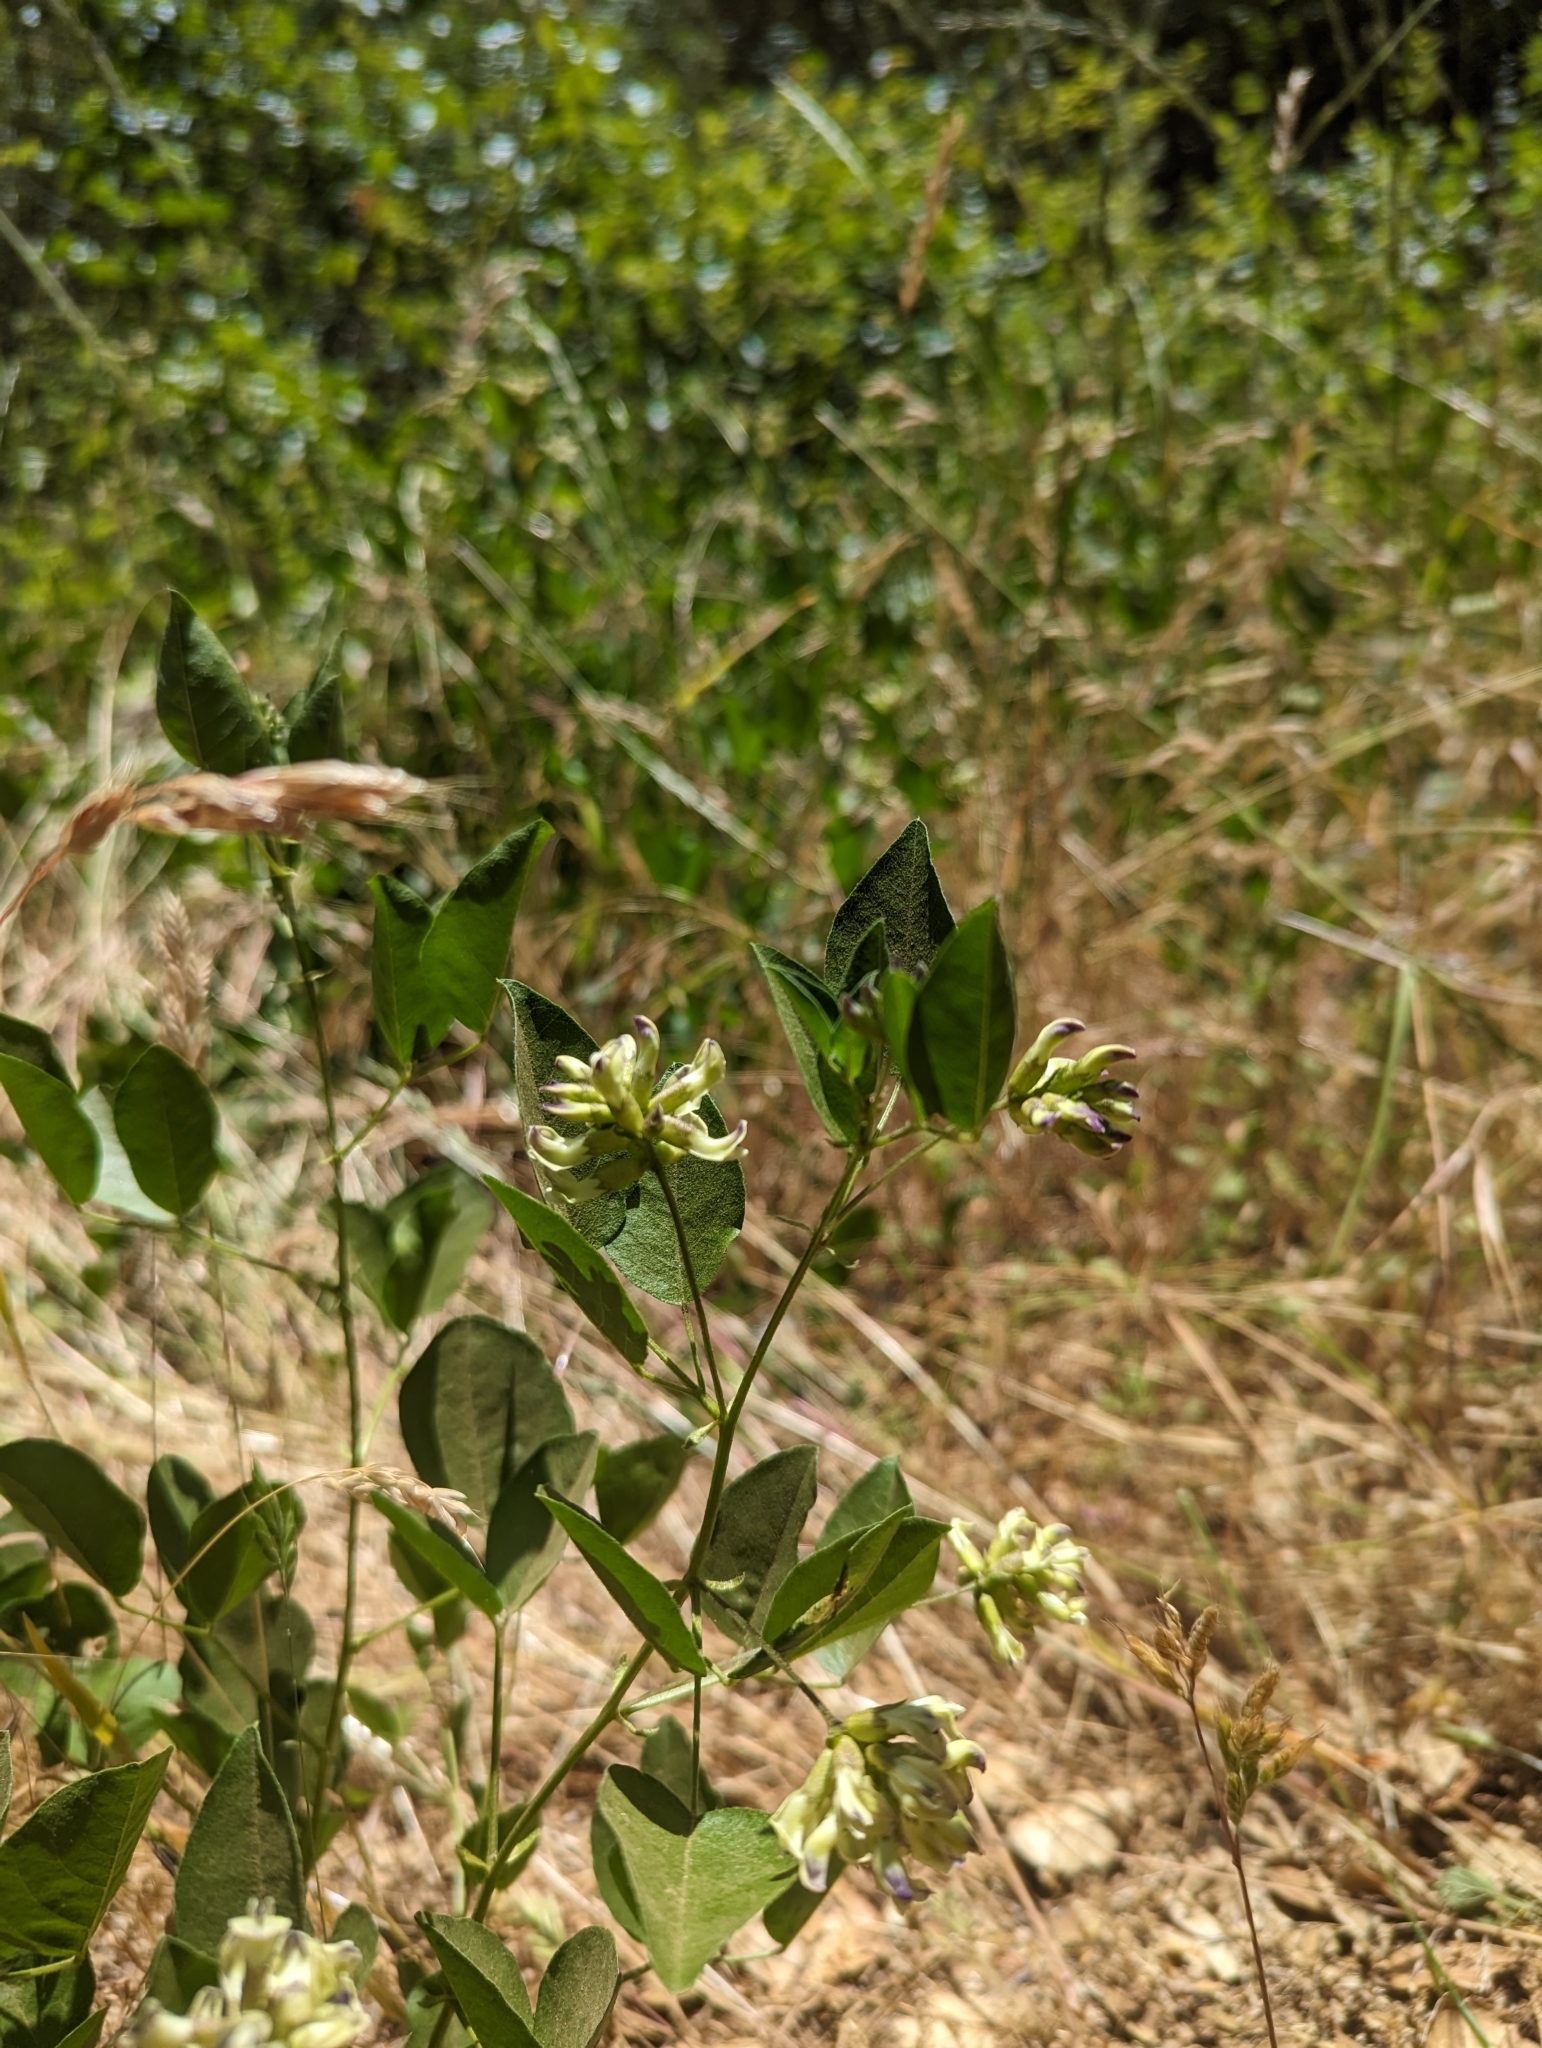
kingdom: Plantae
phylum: Tracheophyta
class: Magnoliopsida
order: Fabales
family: Fabaceae
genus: Rupertia
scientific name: Rupertia physodes
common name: California-tea
